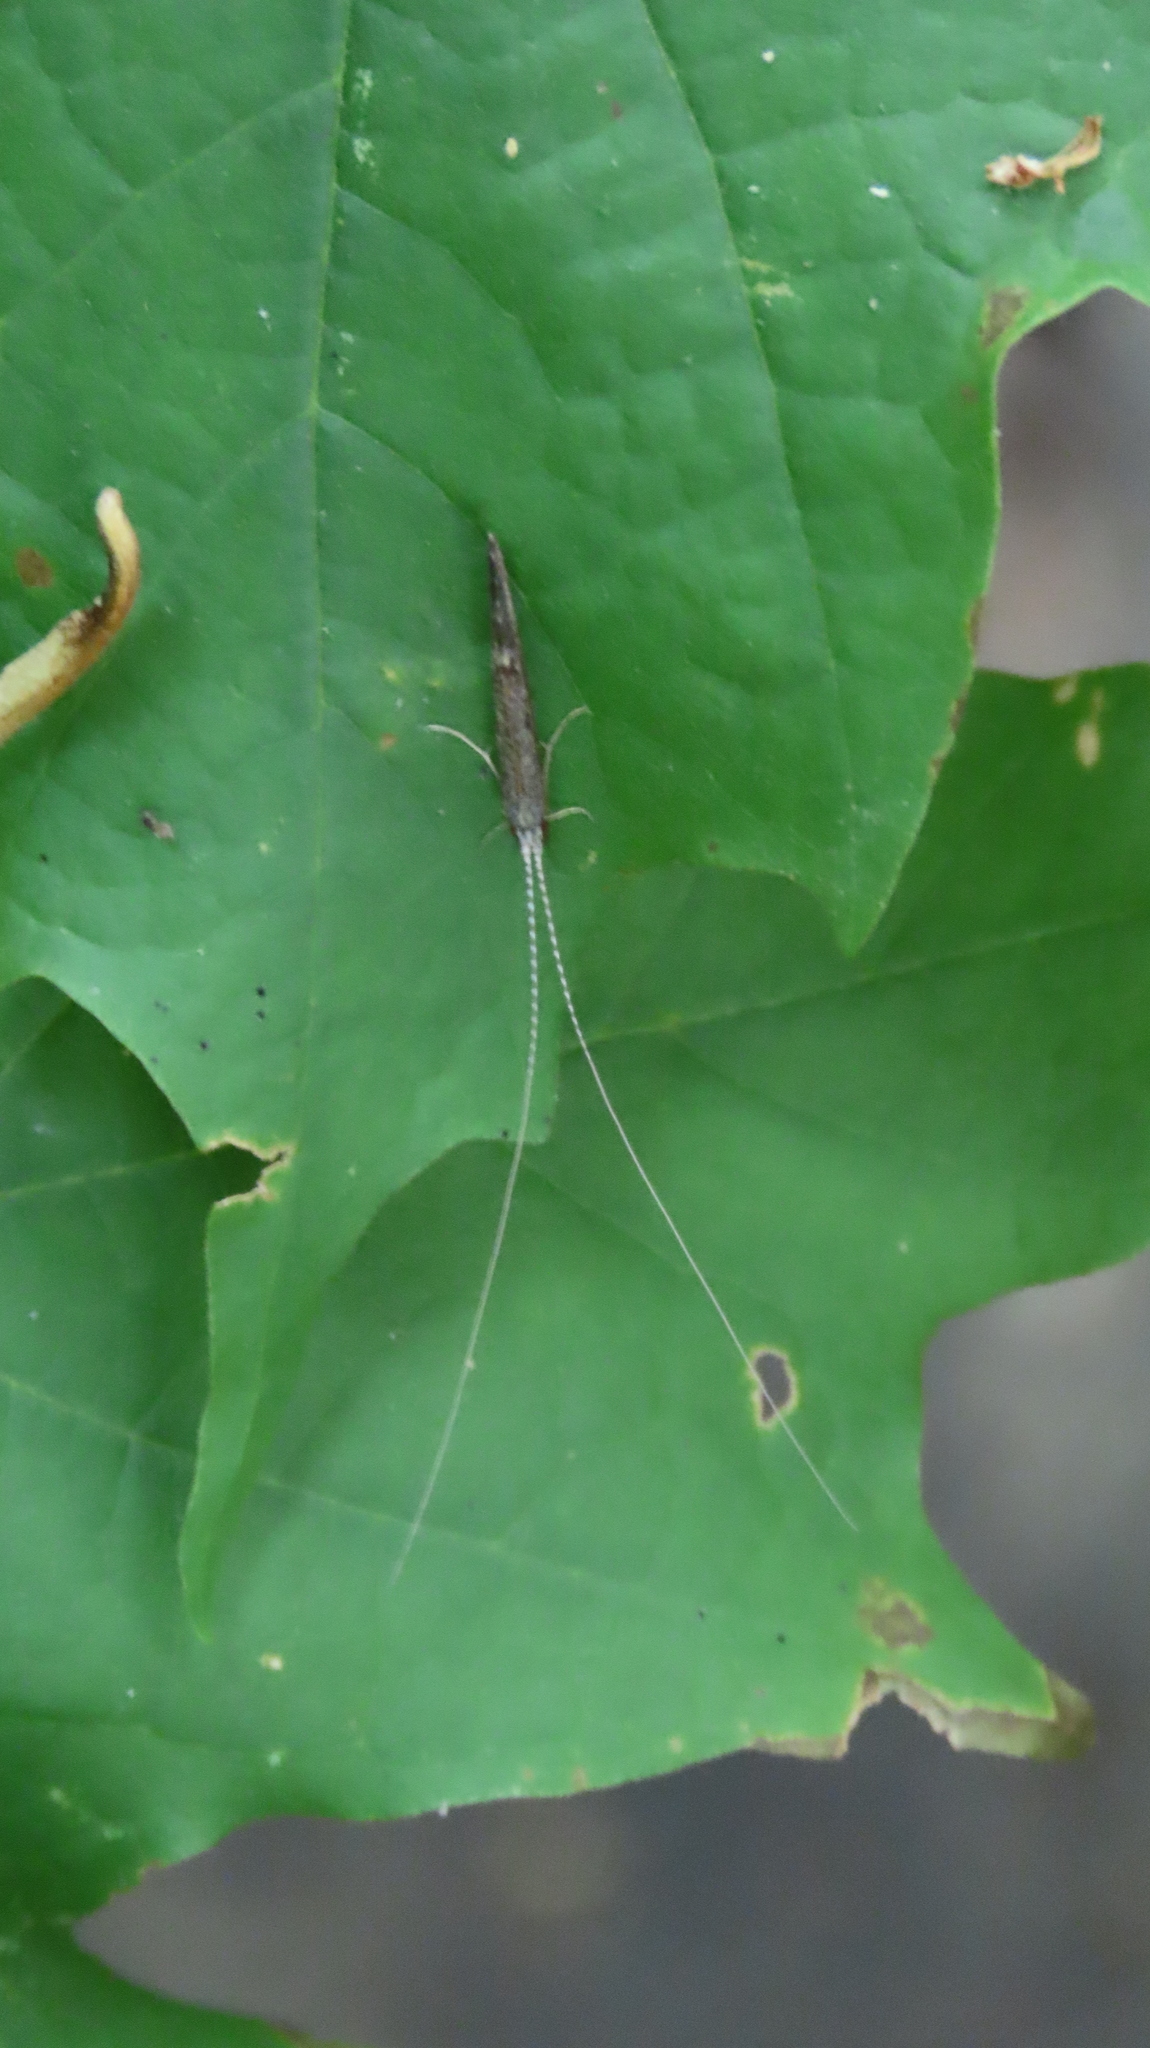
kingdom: Animalia
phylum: Arthropoda
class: Insecta
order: Trichoptera
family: Leptoceridae
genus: Leptocerus
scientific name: Leptocerus americanus
